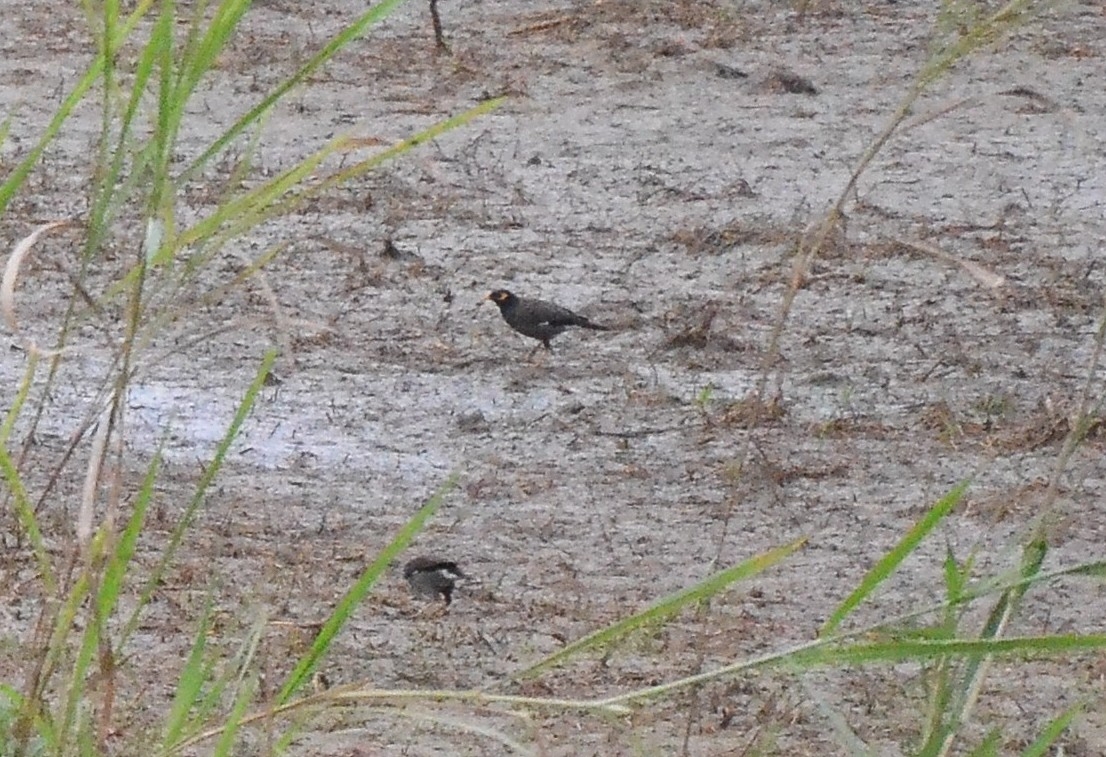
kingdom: Animalia
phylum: Chordata
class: Aves
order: Passeriformes
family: Sturnidae
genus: Acridotheres
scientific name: Acridotheres tristis
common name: Common myna
